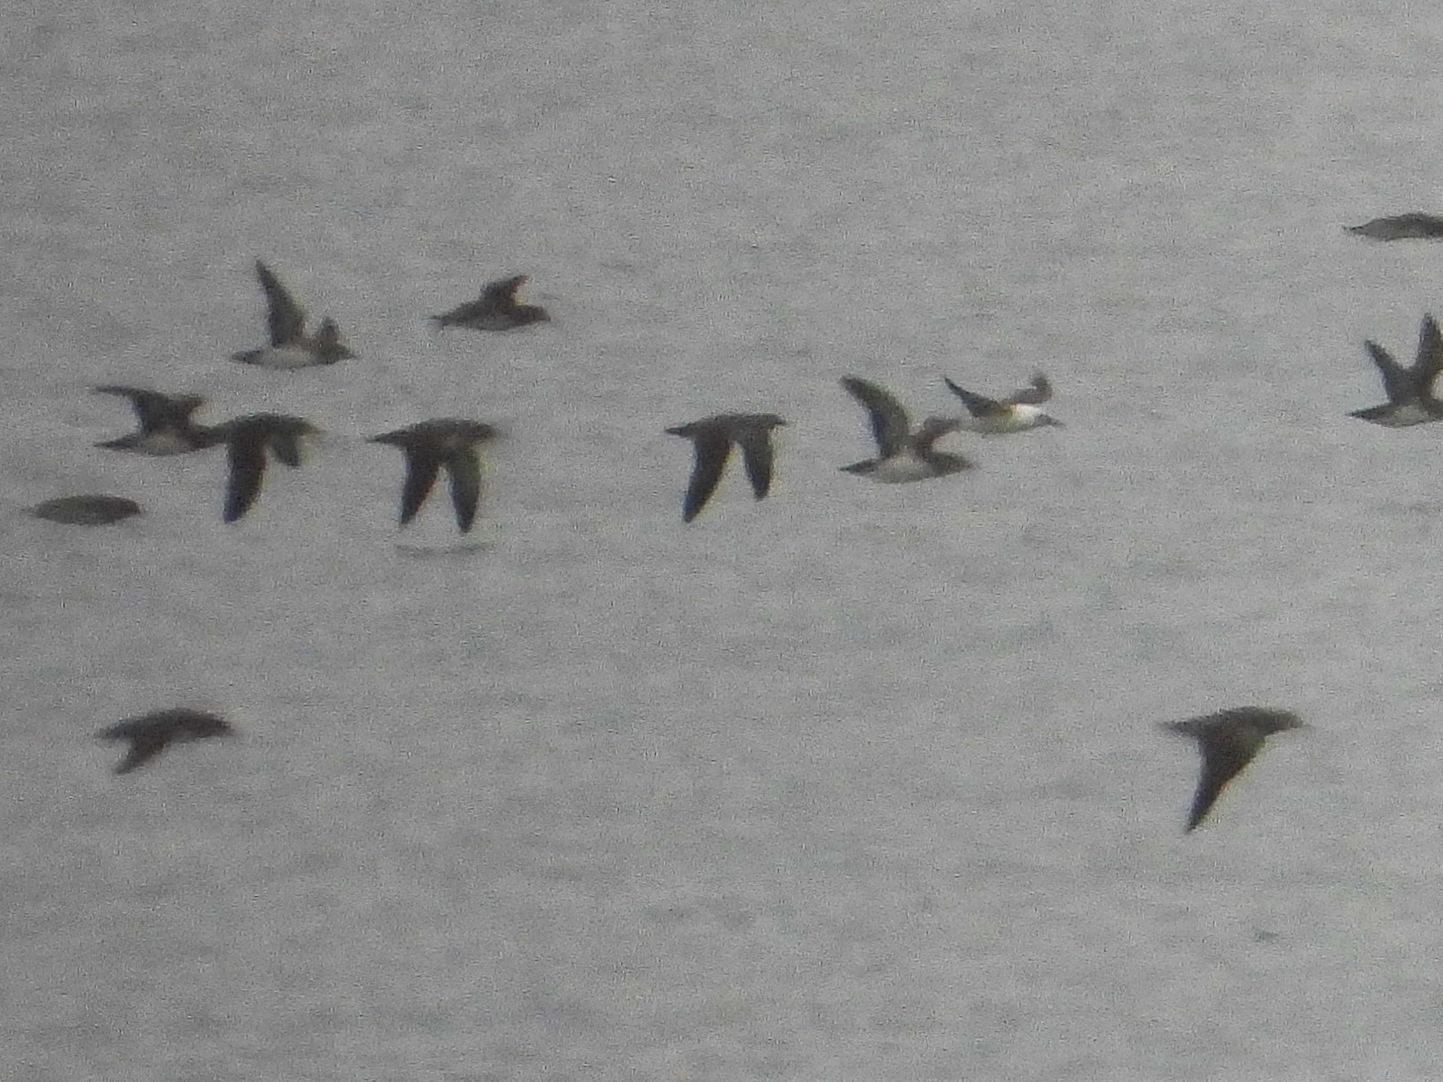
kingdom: Animalia
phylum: Chordata
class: Aves
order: Procellariiformes
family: Procellariidae
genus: Puffinus
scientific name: Puffinus opisthomelas
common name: Black-vented shearwater
